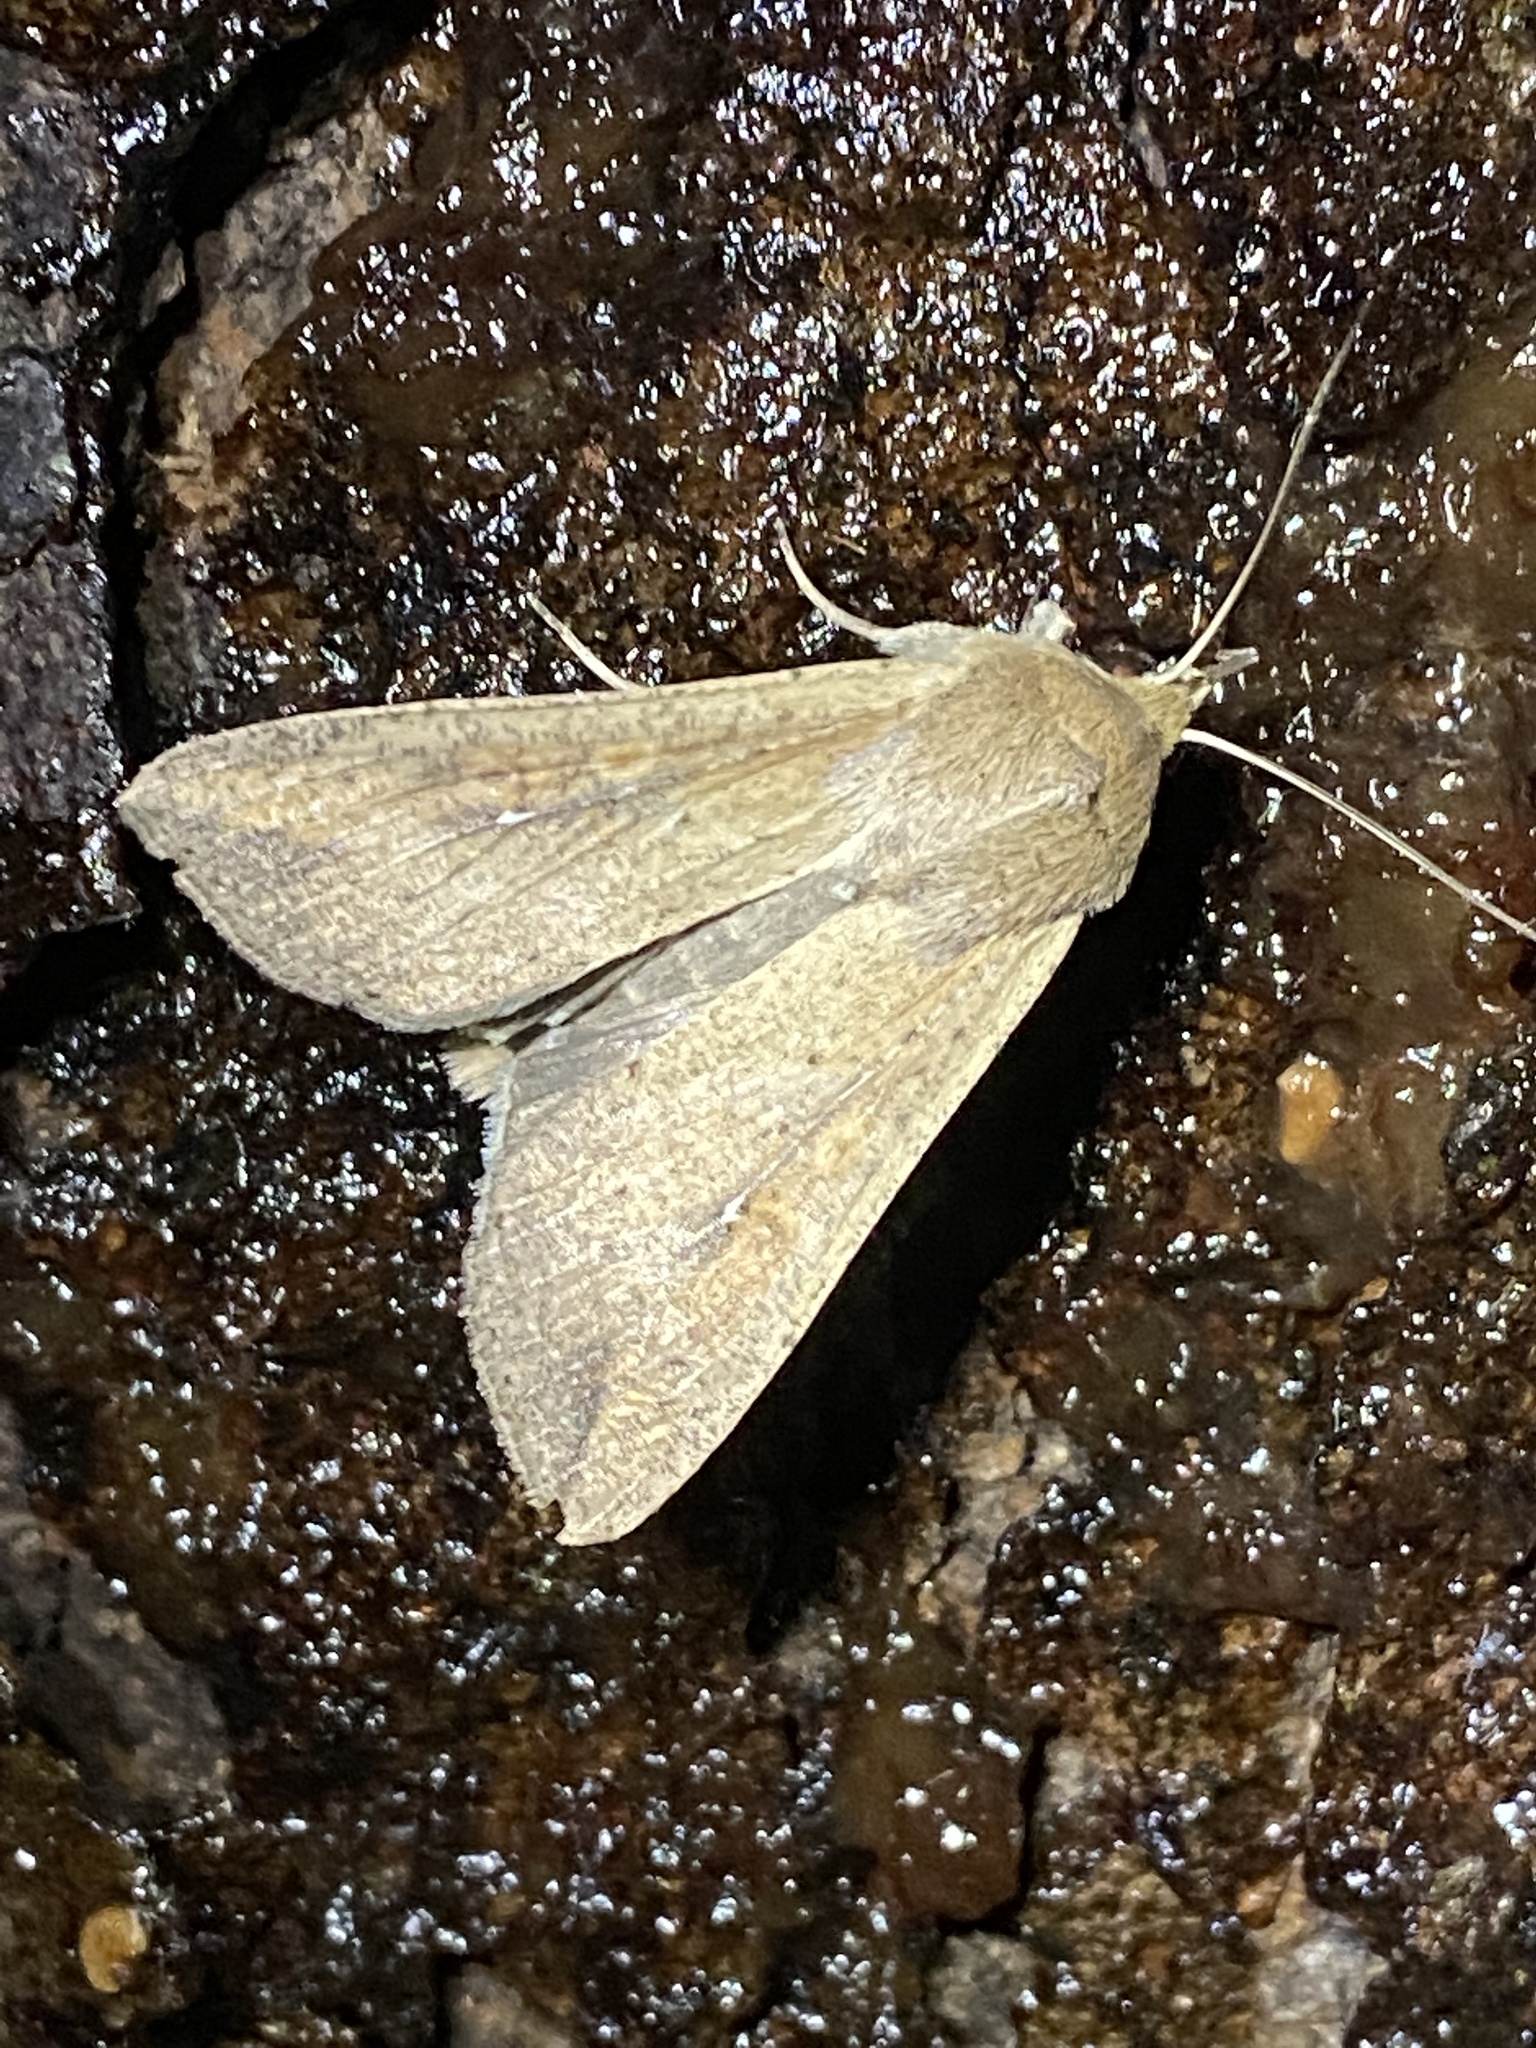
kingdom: Animalia
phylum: Arthropoda
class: Insecta
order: Lepidoptera
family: Noctuidae
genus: Mythimna
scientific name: Mythimna unipuncta
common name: White-speck
